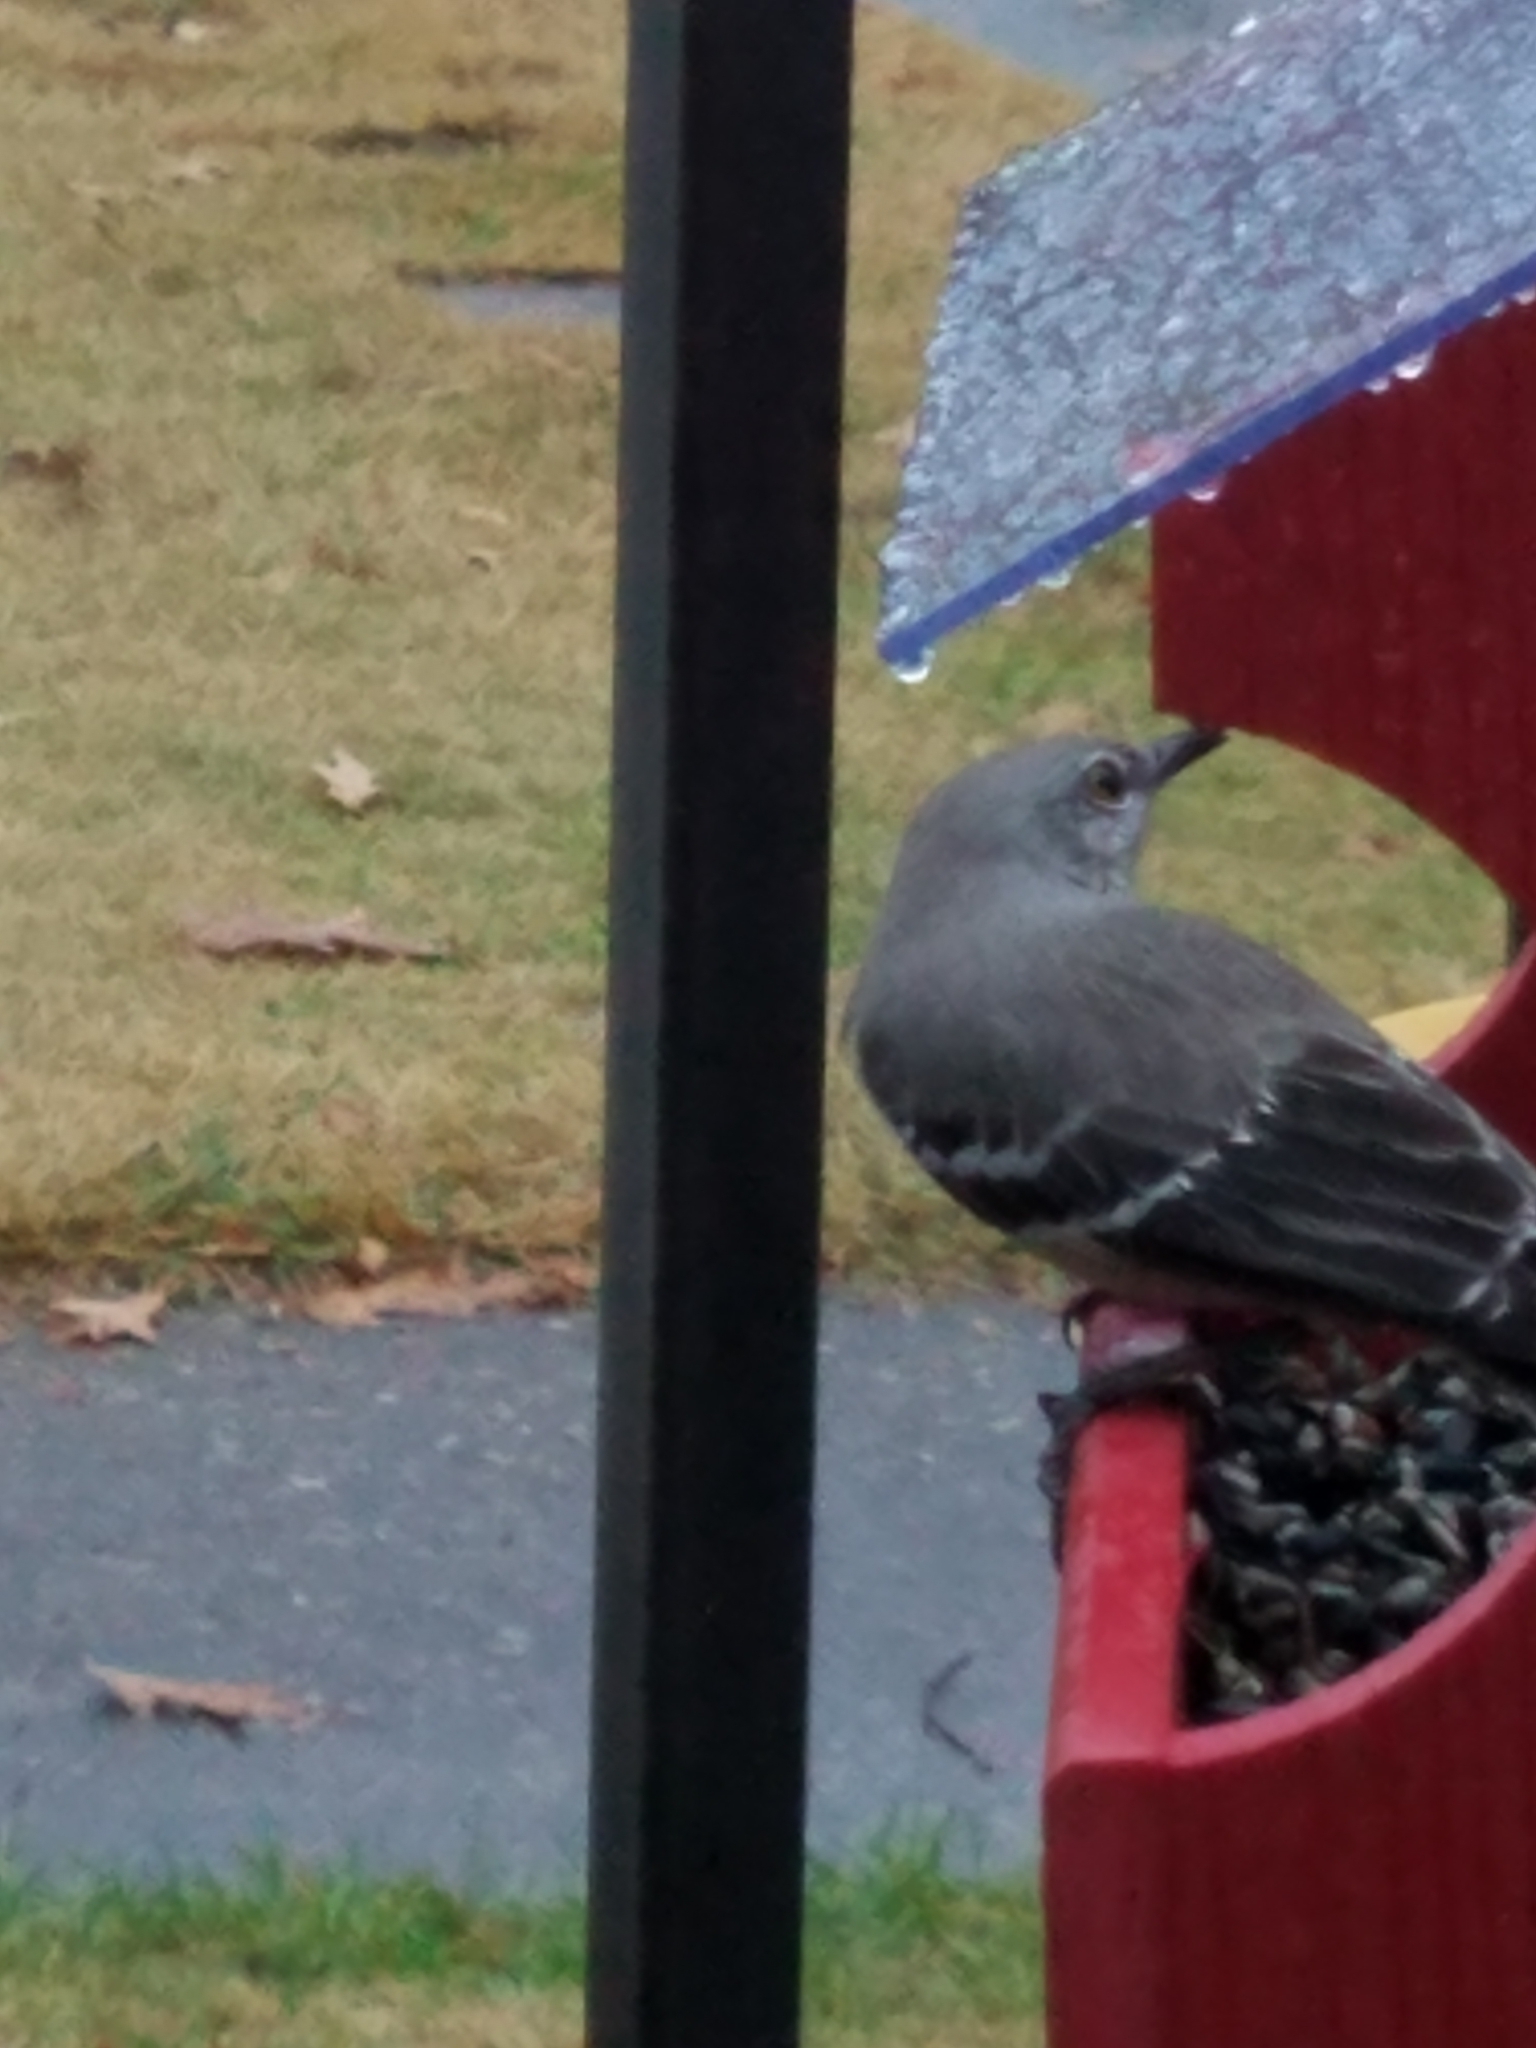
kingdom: Animalia
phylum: Chordata
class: Aves
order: Passeriformes
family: Mimidae
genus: Mimus
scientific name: Mimus polyglottos
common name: Northern mockingbird
